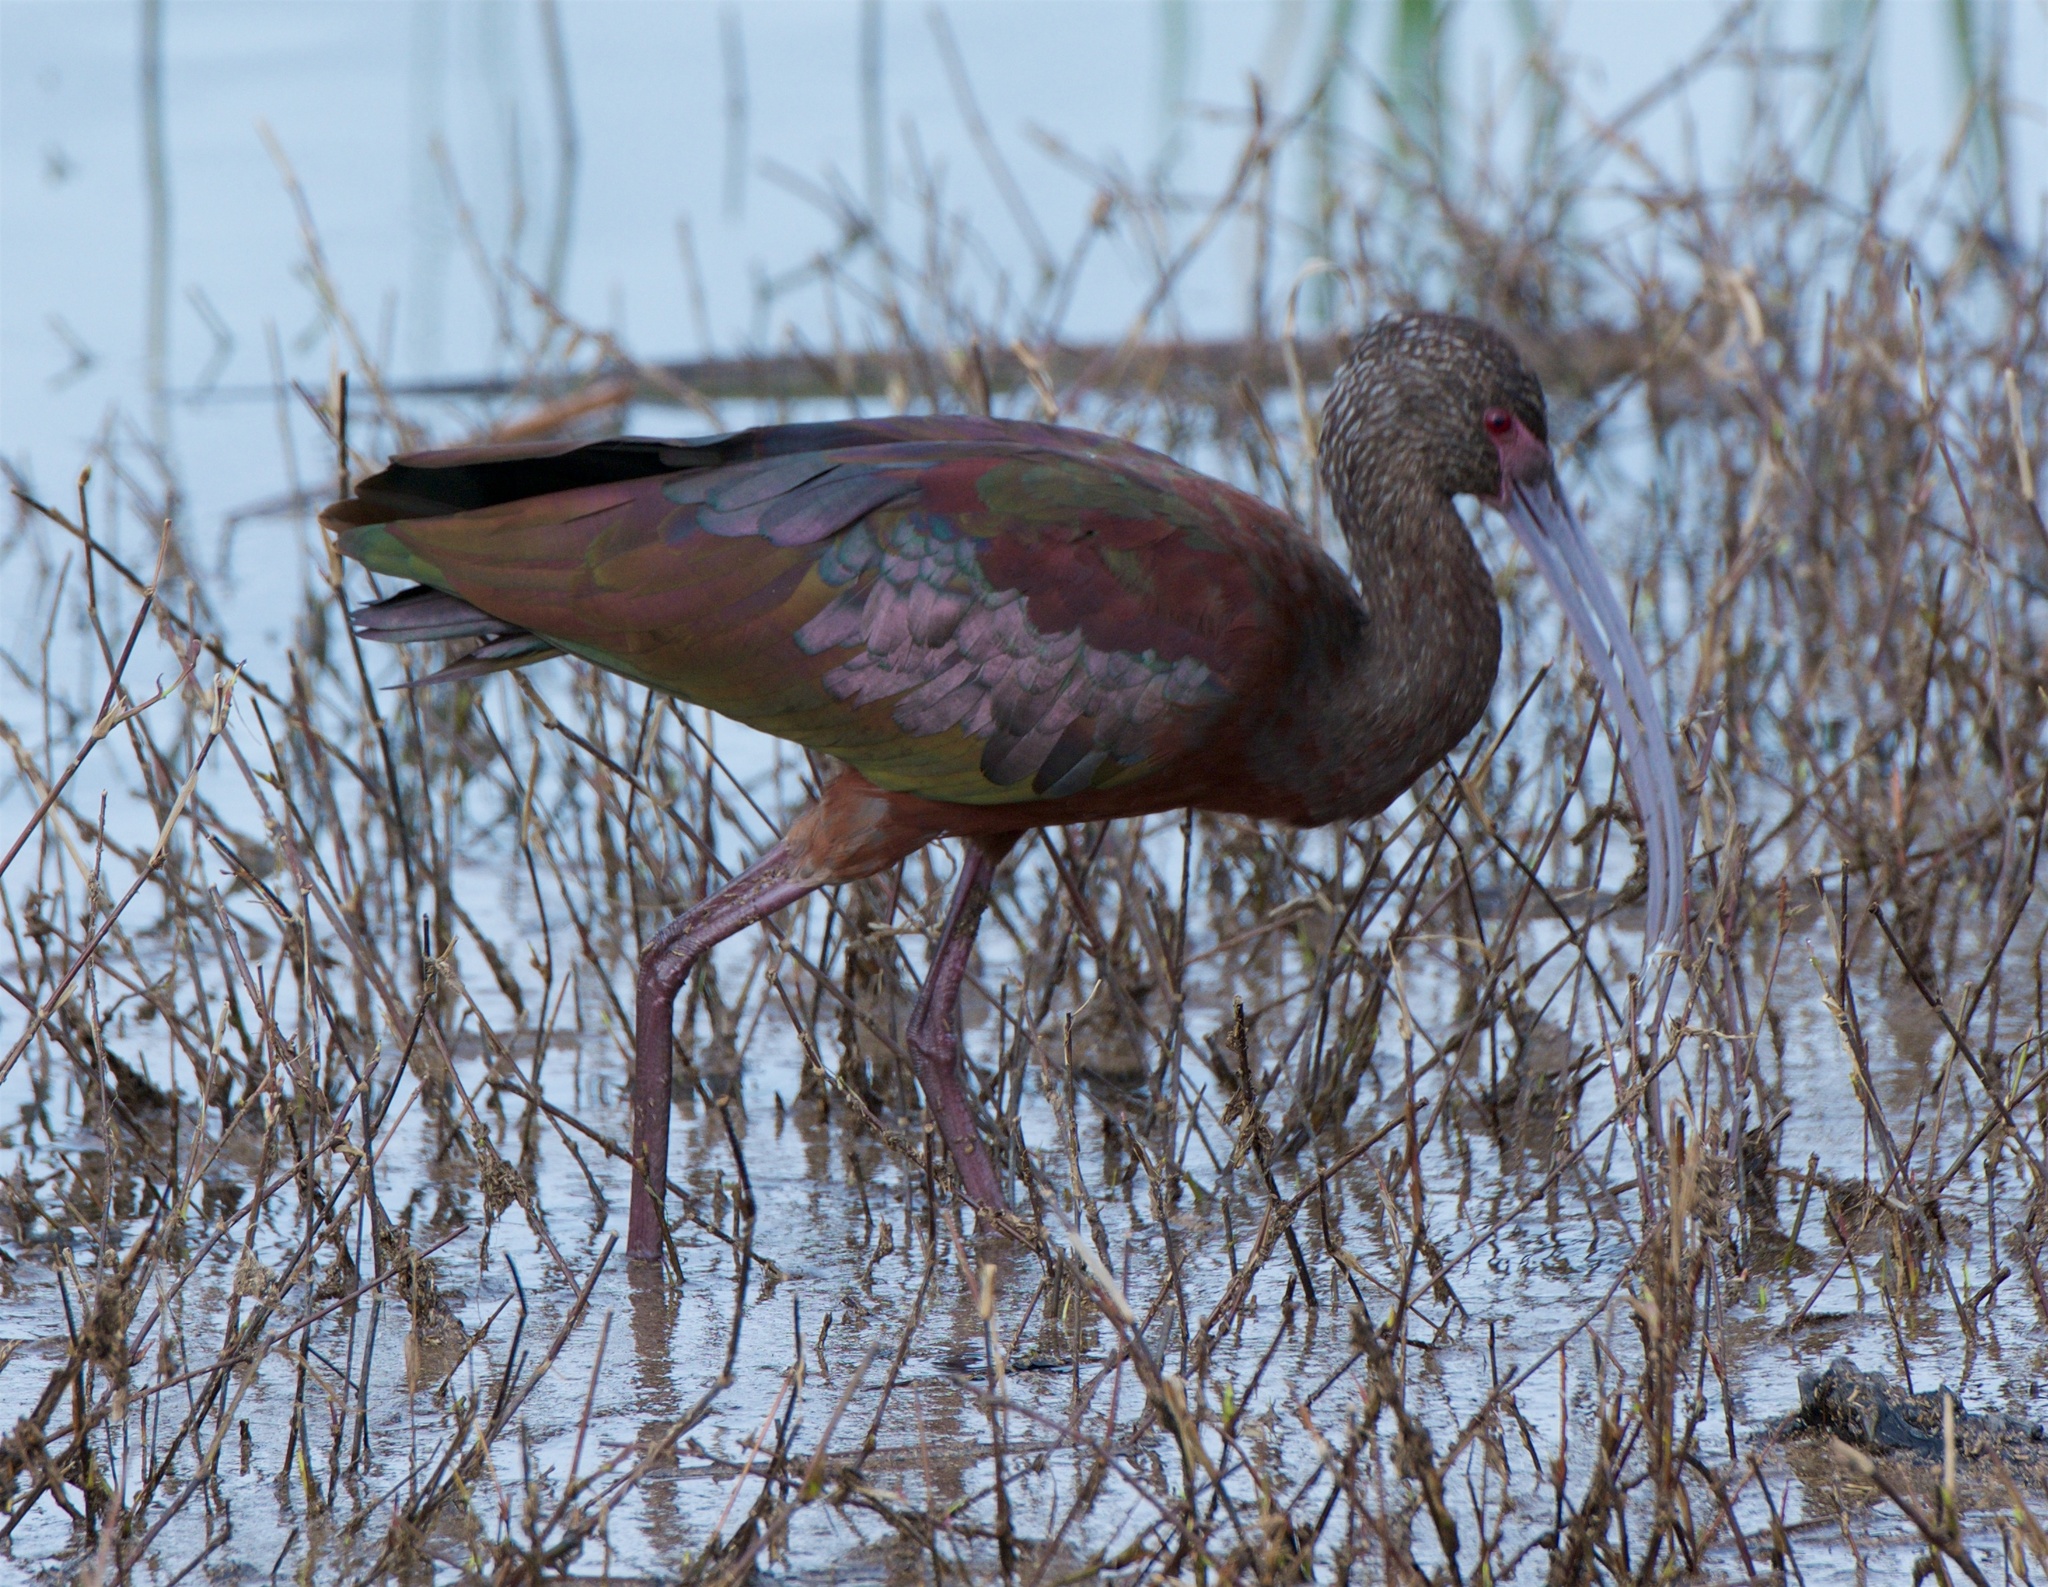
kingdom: Animalia
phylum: Chordata
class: Aves
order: Pelecaniformes
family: Threskiornithidae
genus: Plegadis
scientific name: Plegadis chihi
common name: White-faced ibis
